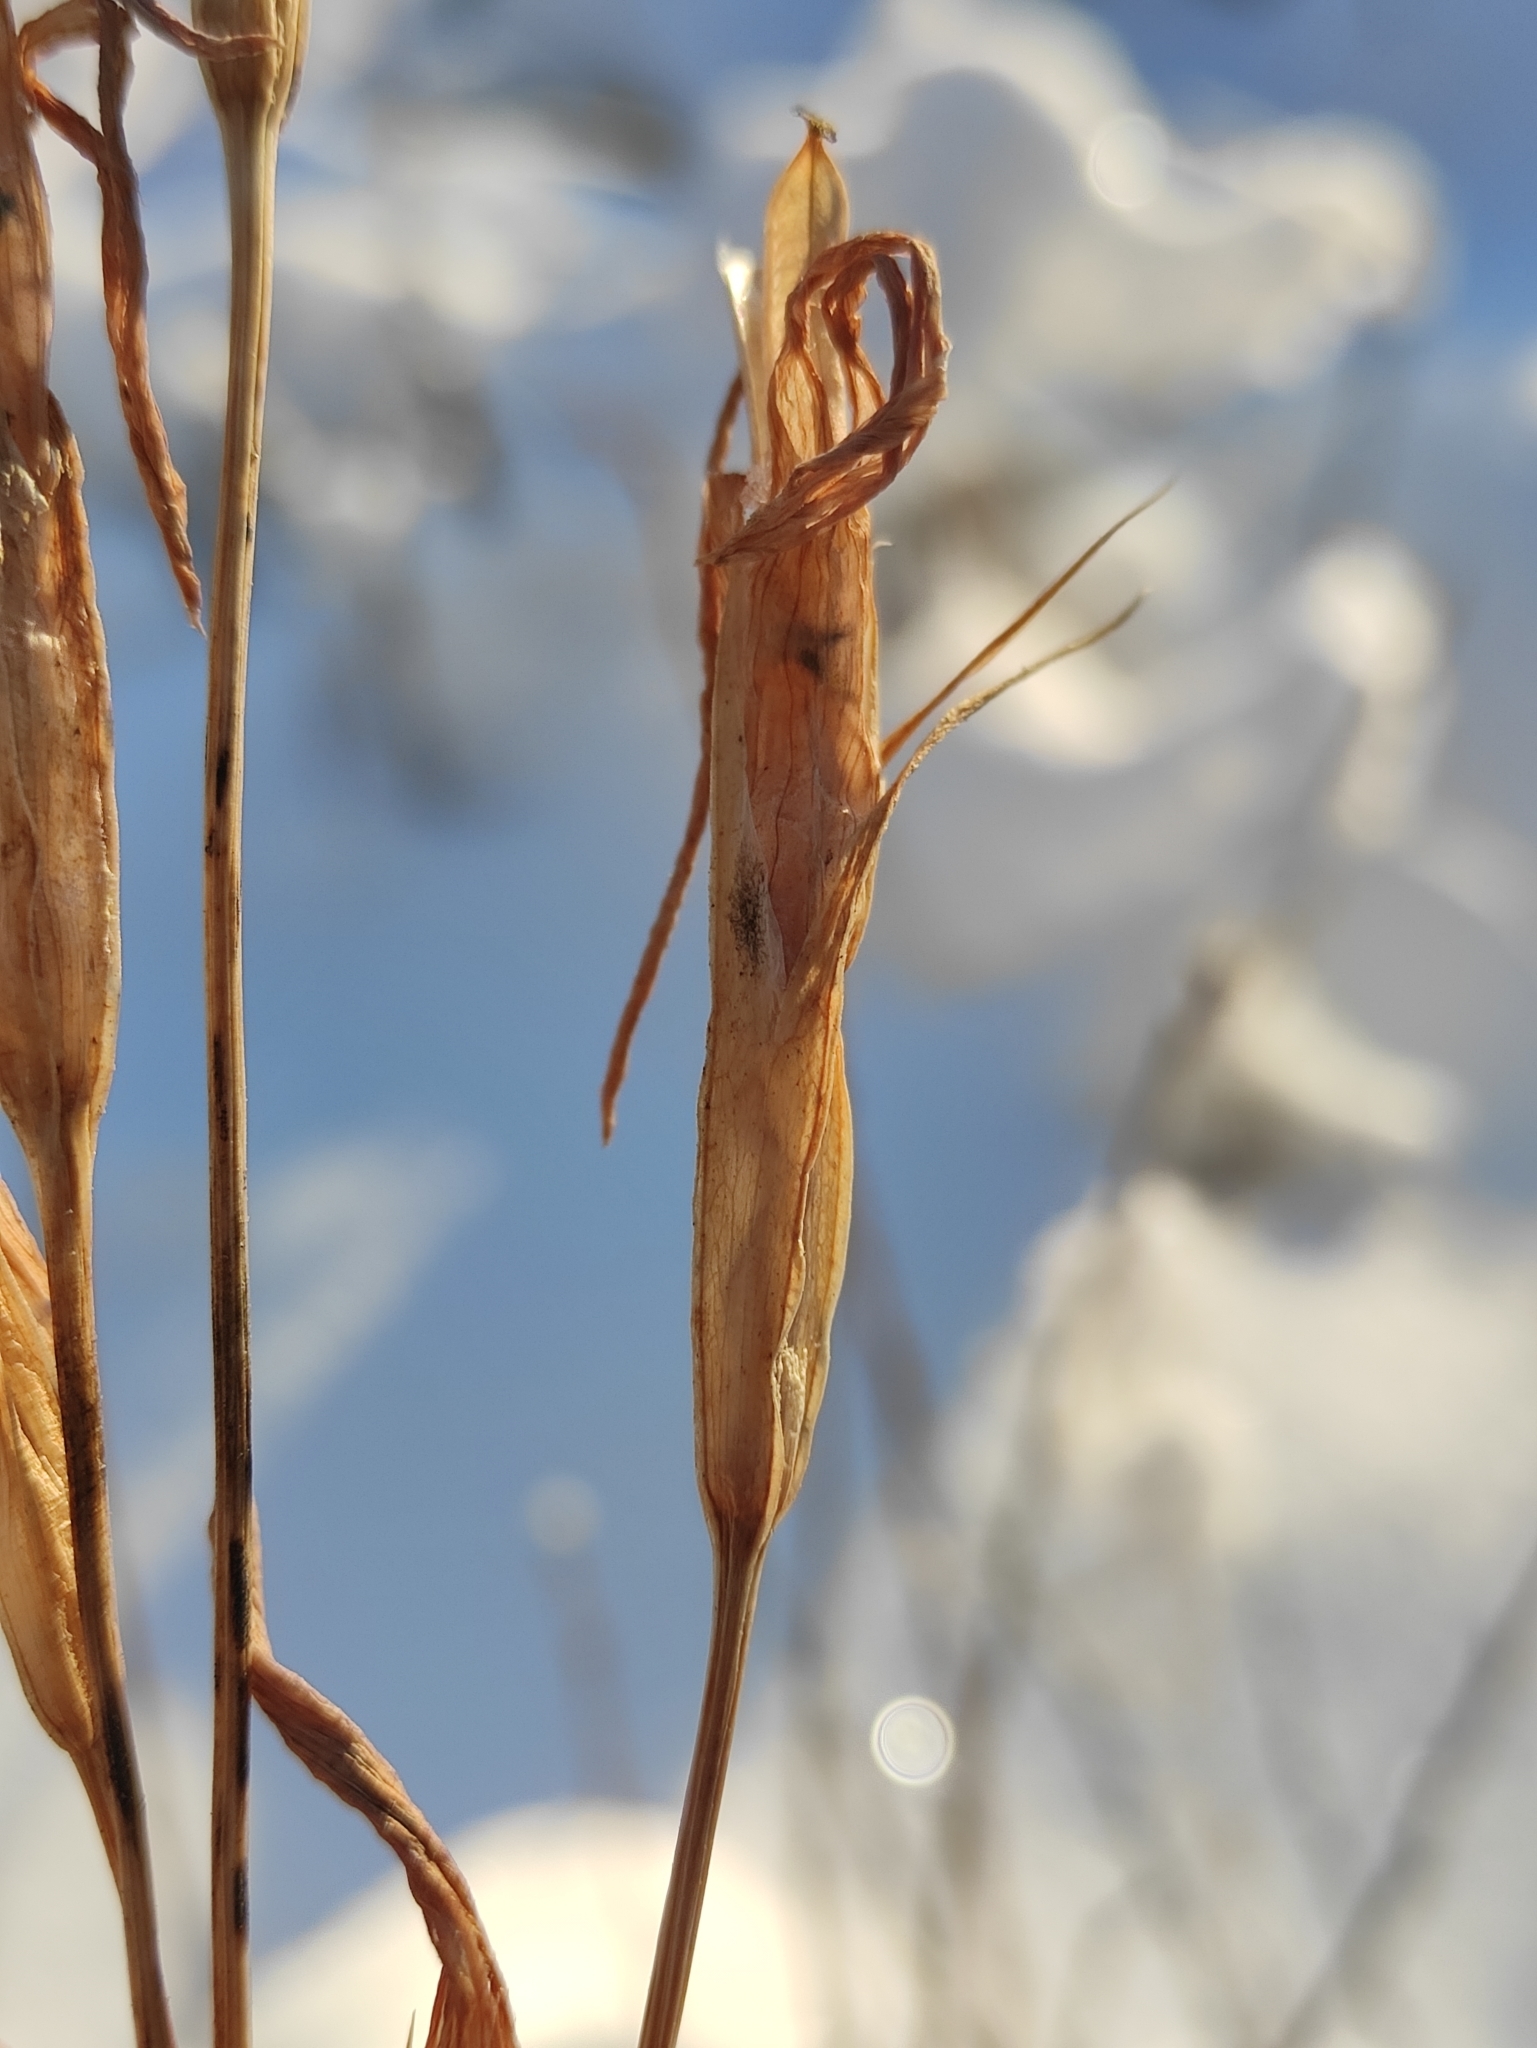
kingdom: Plantae
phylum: Tracheophyta
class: Magnoliopsida
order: Gentianales
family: Gentianaceae
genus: Gentianopsis
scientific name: Gentianopsis barbata
